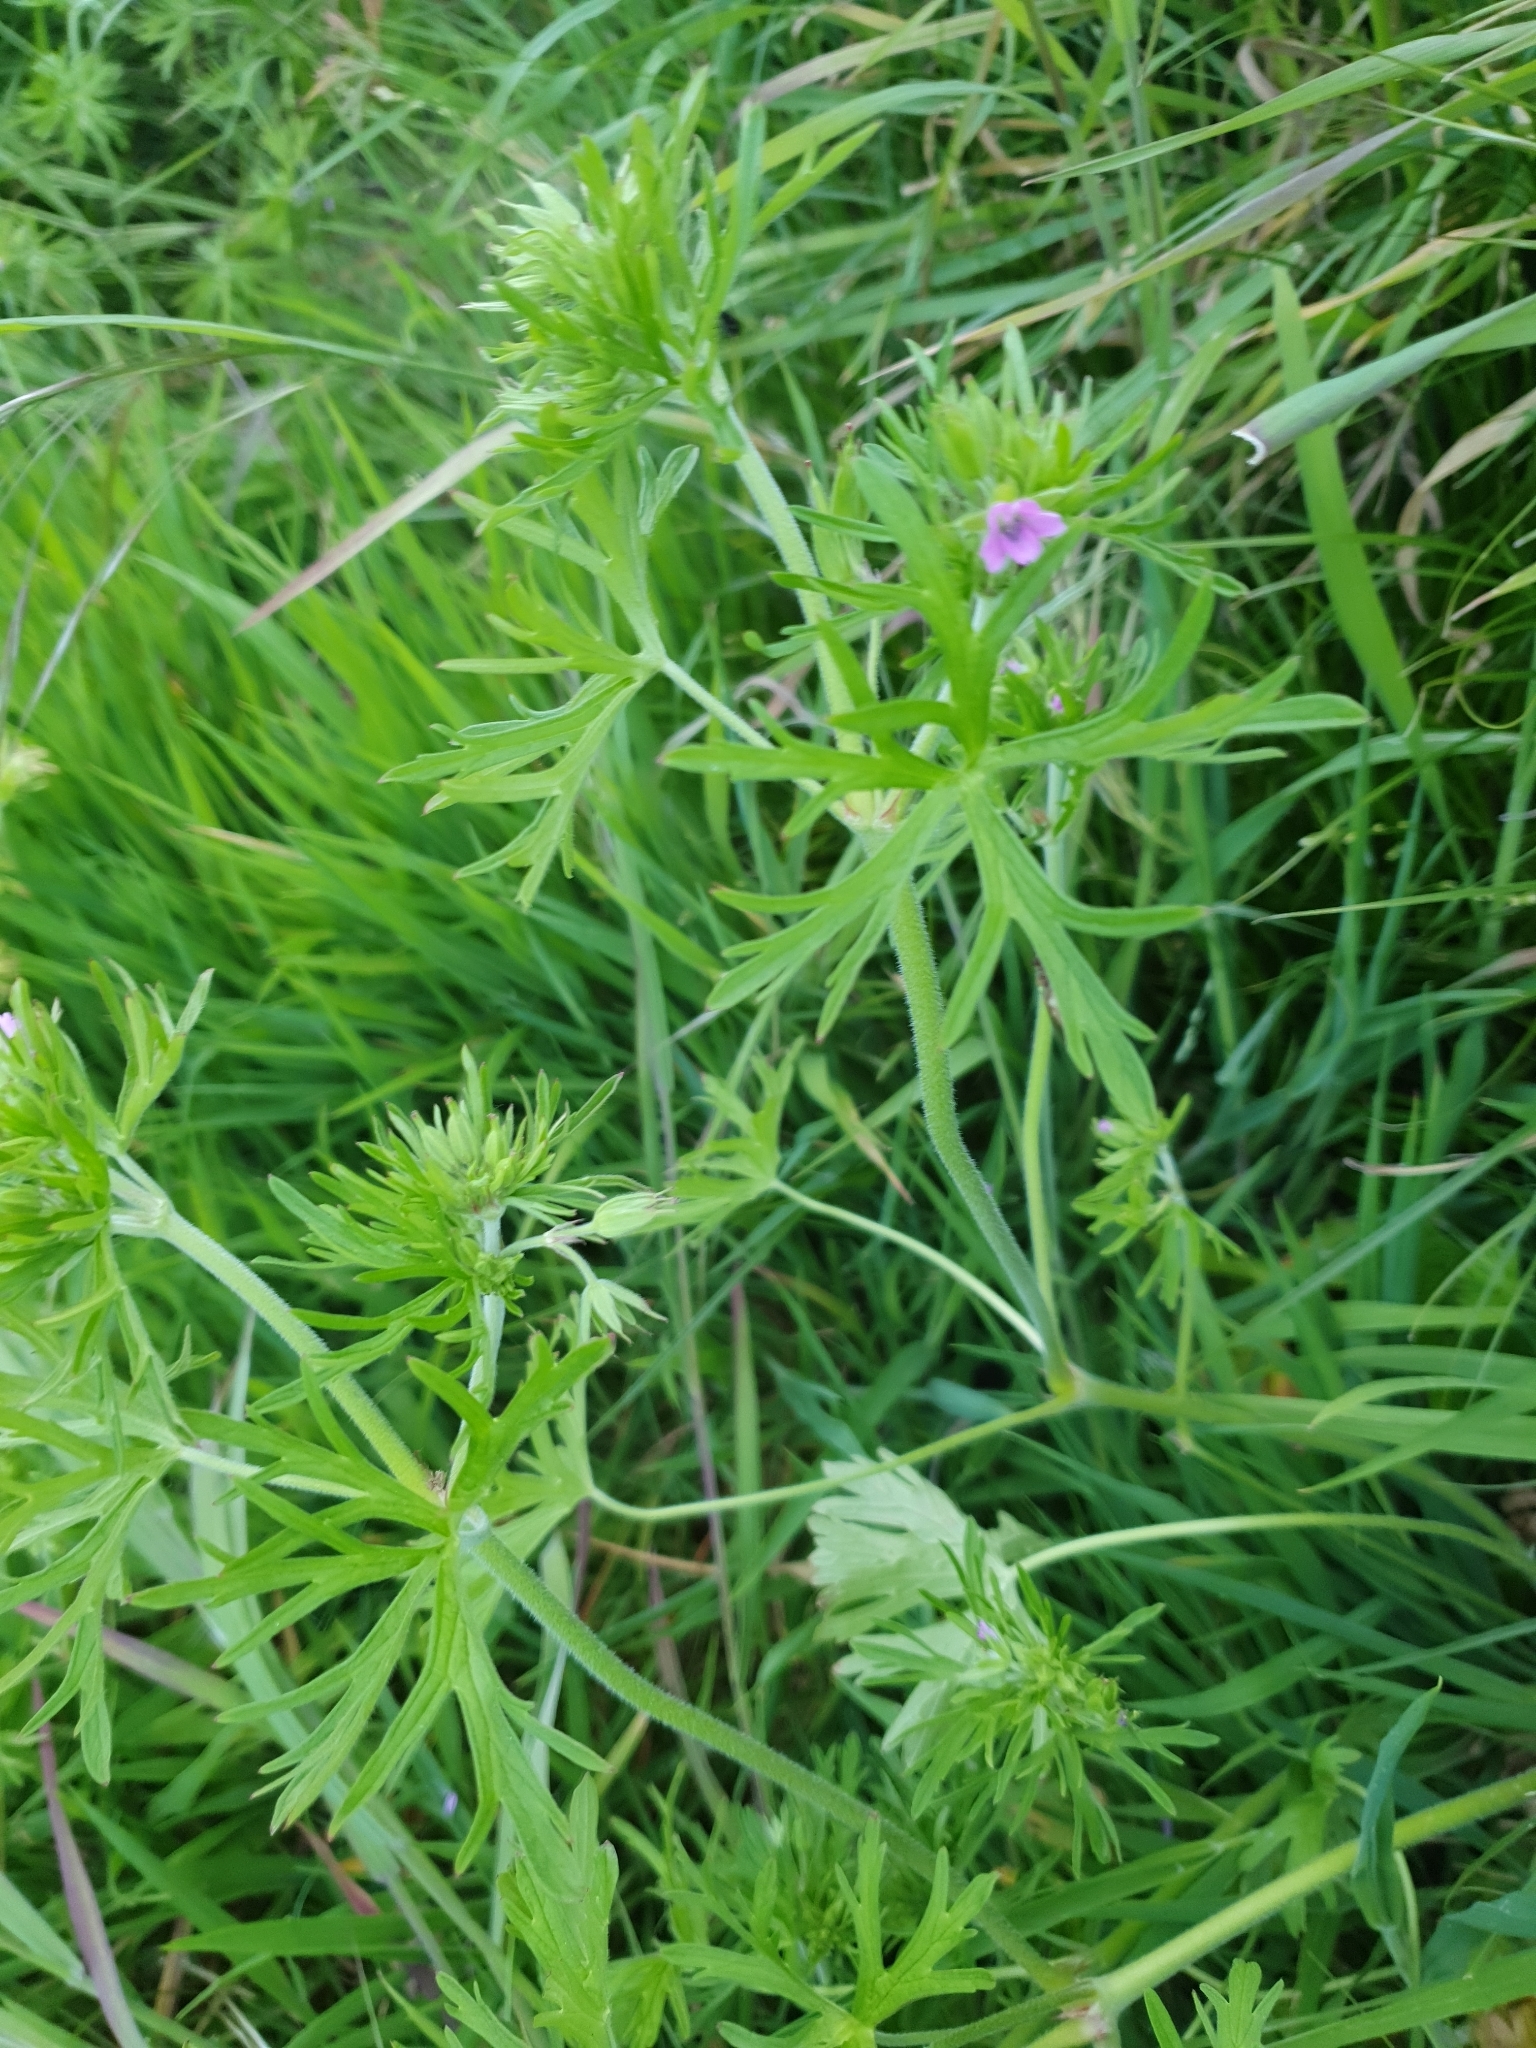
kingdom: Plantae
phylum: Tracheophyta
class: Magnoliopsida
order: Geraniales
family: Geraniaceae
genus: Geranium
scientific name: Geranium dissectum
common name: Cut-leaved crane's-bill
